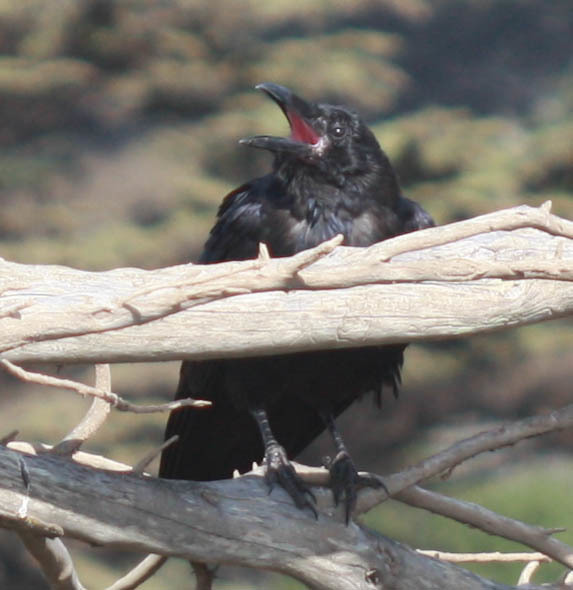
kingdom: Animalia
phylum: Chordata
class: Aves
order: Passeriformes
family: Corvidae
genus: Corvus
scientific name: Corvus corax
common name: Common raven
